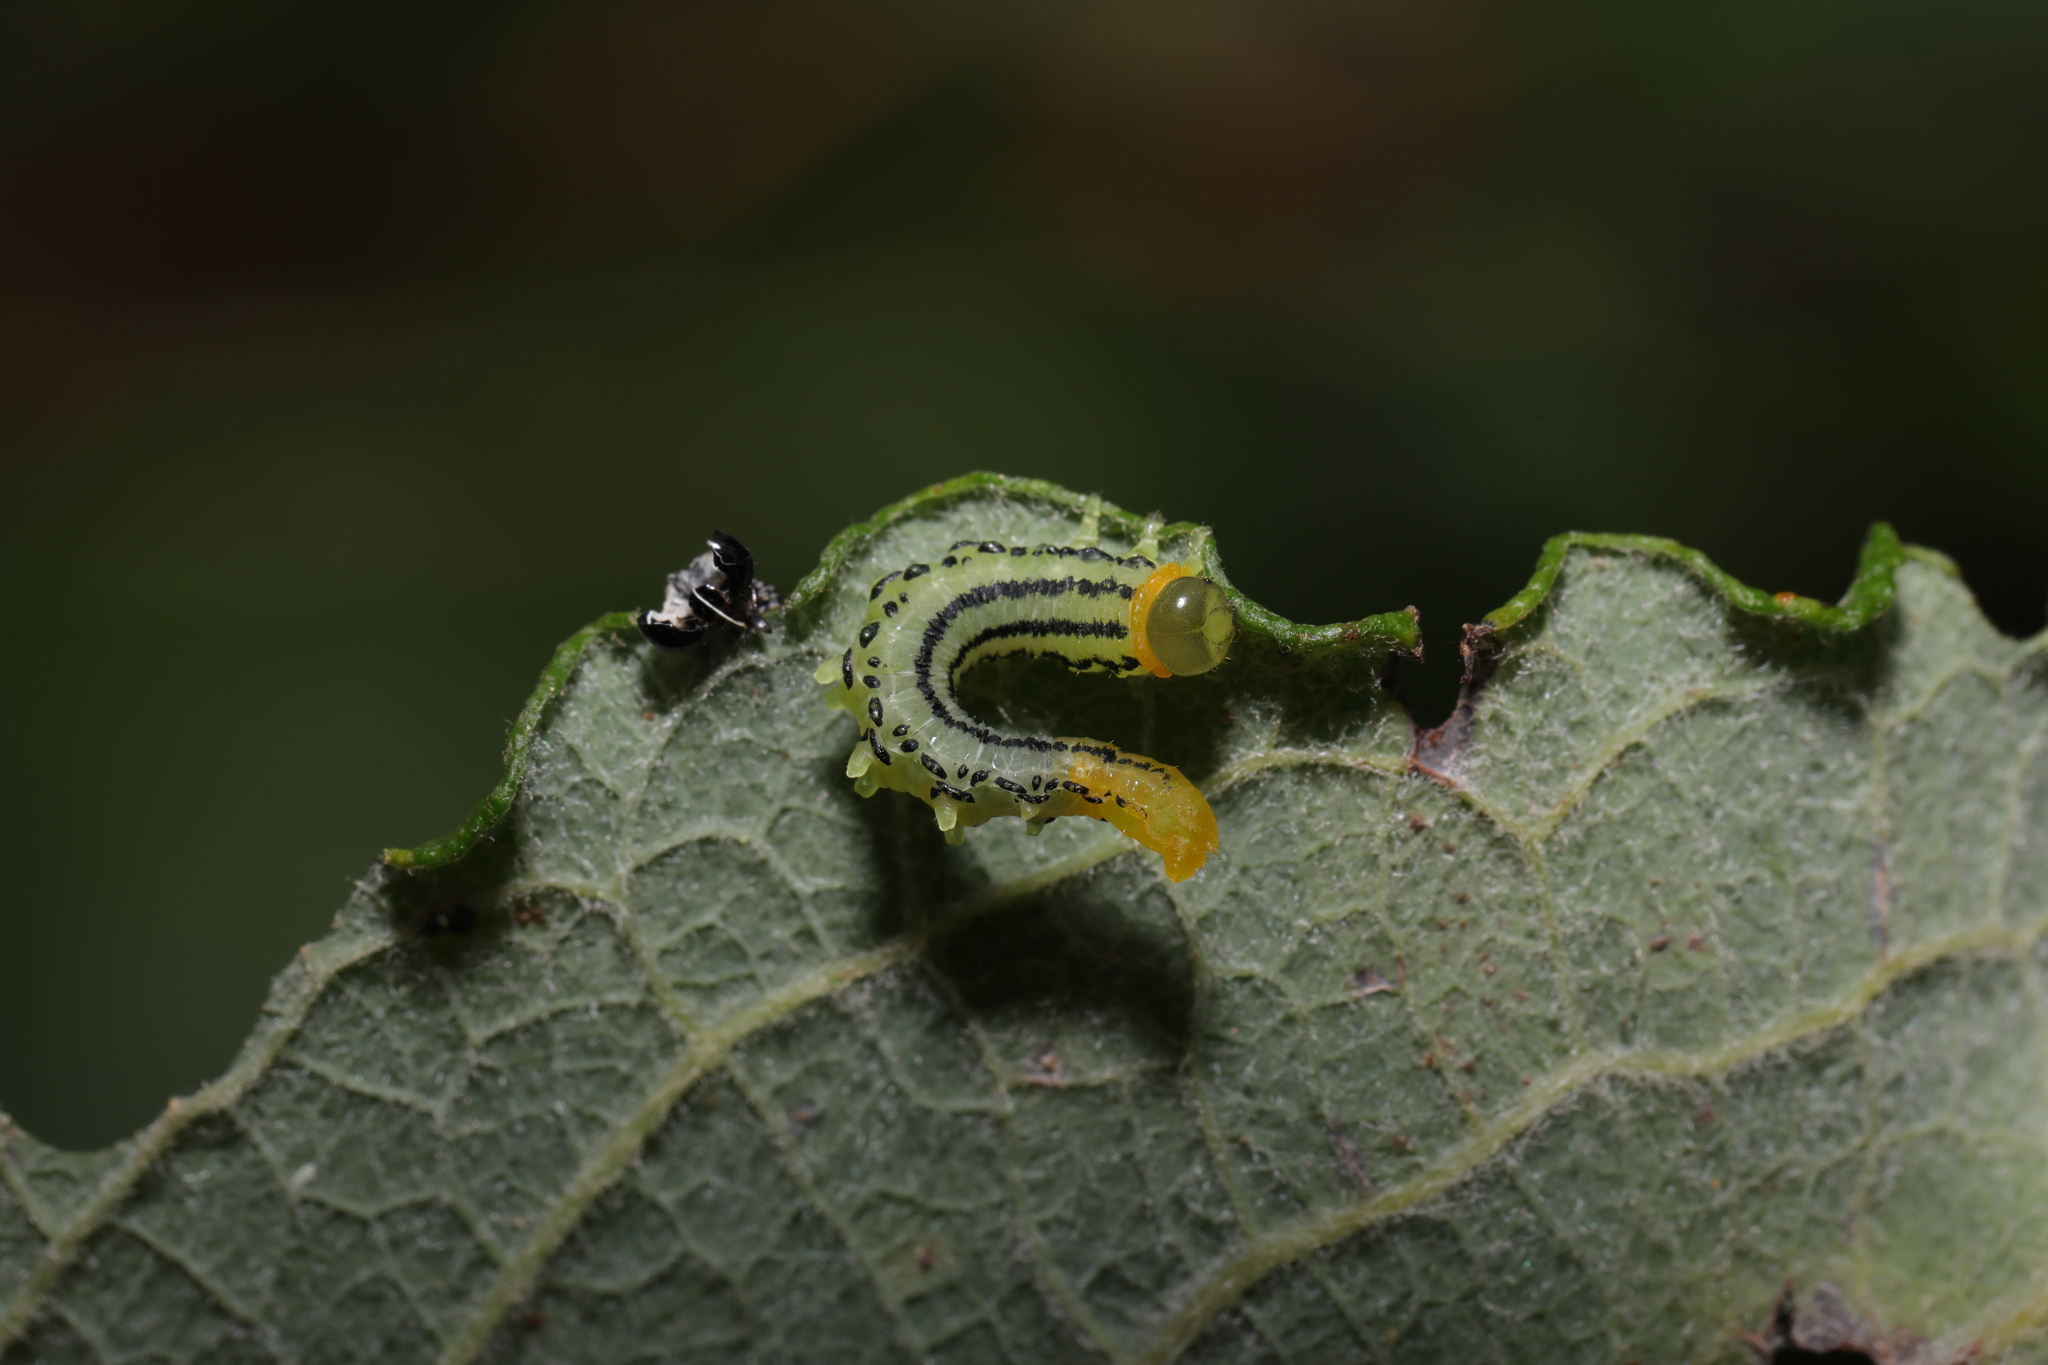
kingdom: Animalia
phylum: Arthropoda
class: Insecta
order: Hymenoptera
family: Tenthredinidae
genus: Nematus
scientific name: Nematus pavidus
